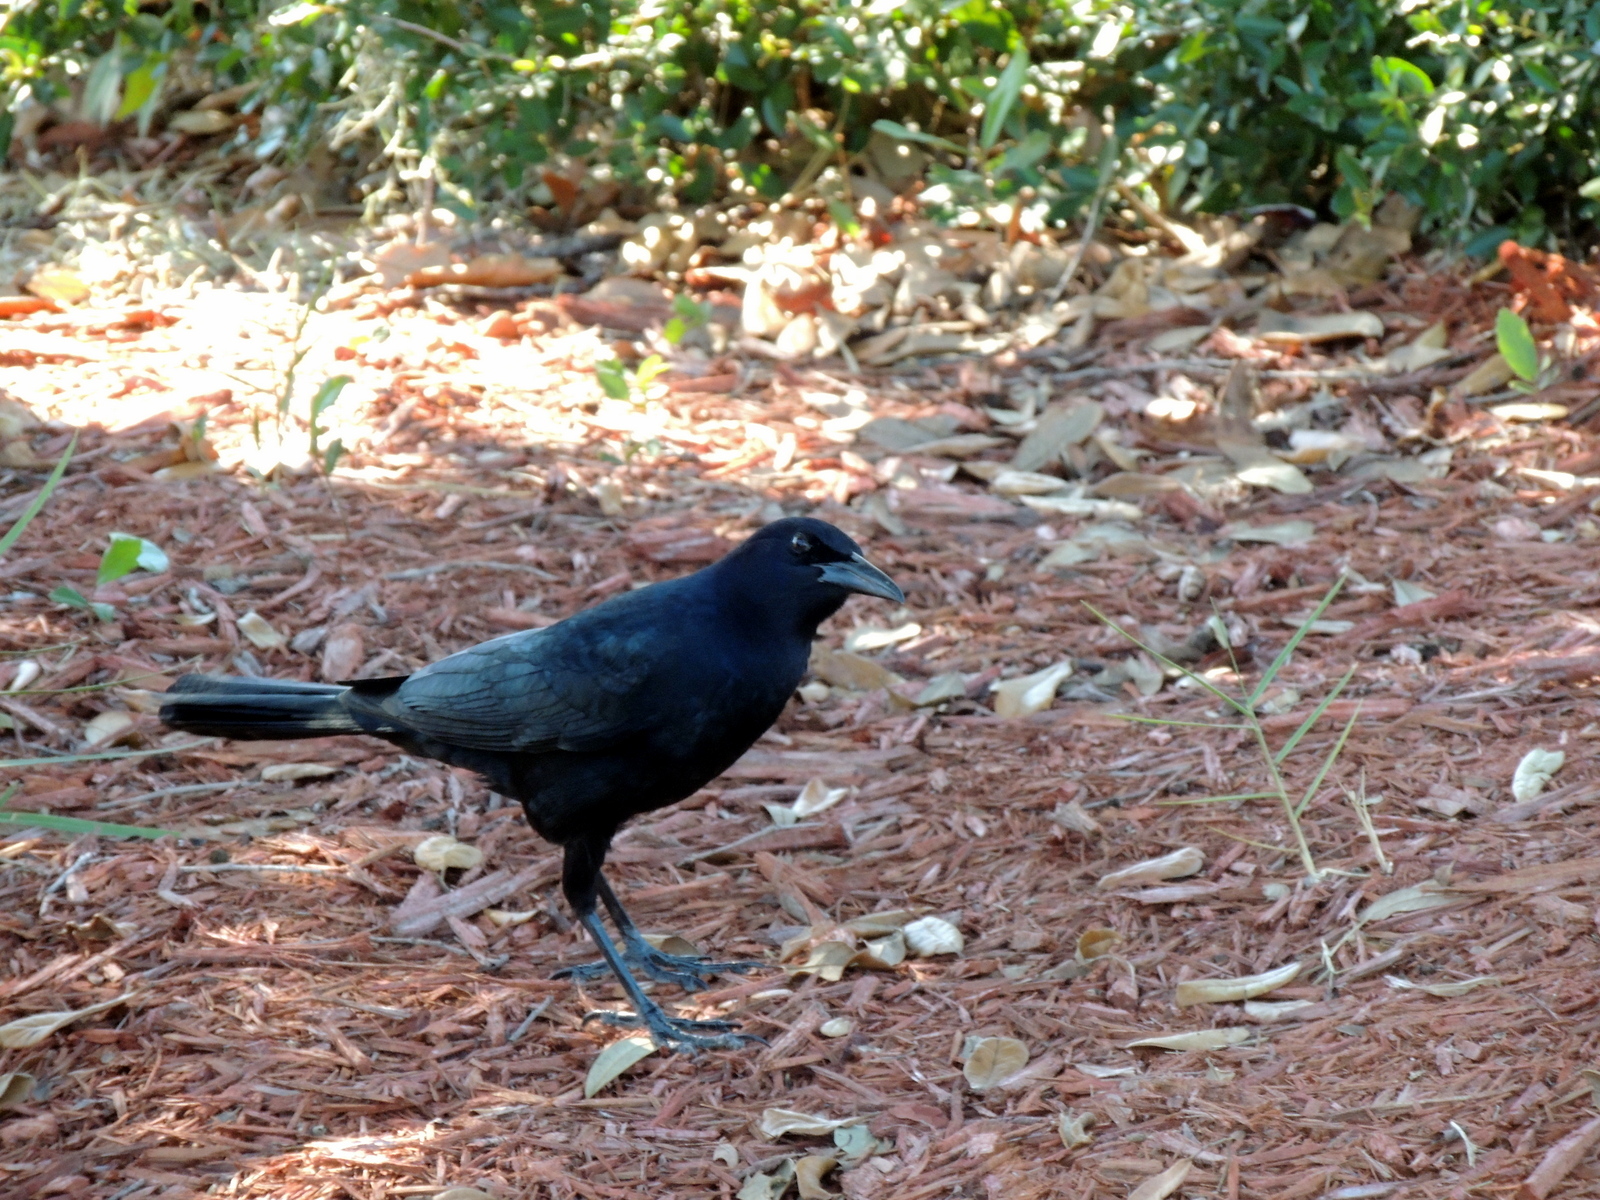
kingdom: Animalia
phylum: Chordata
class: Aves
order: Passeriformes
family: Icteridae
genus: Quiscalus
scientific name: Quiscalus major
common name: Boat-tailed grackle
